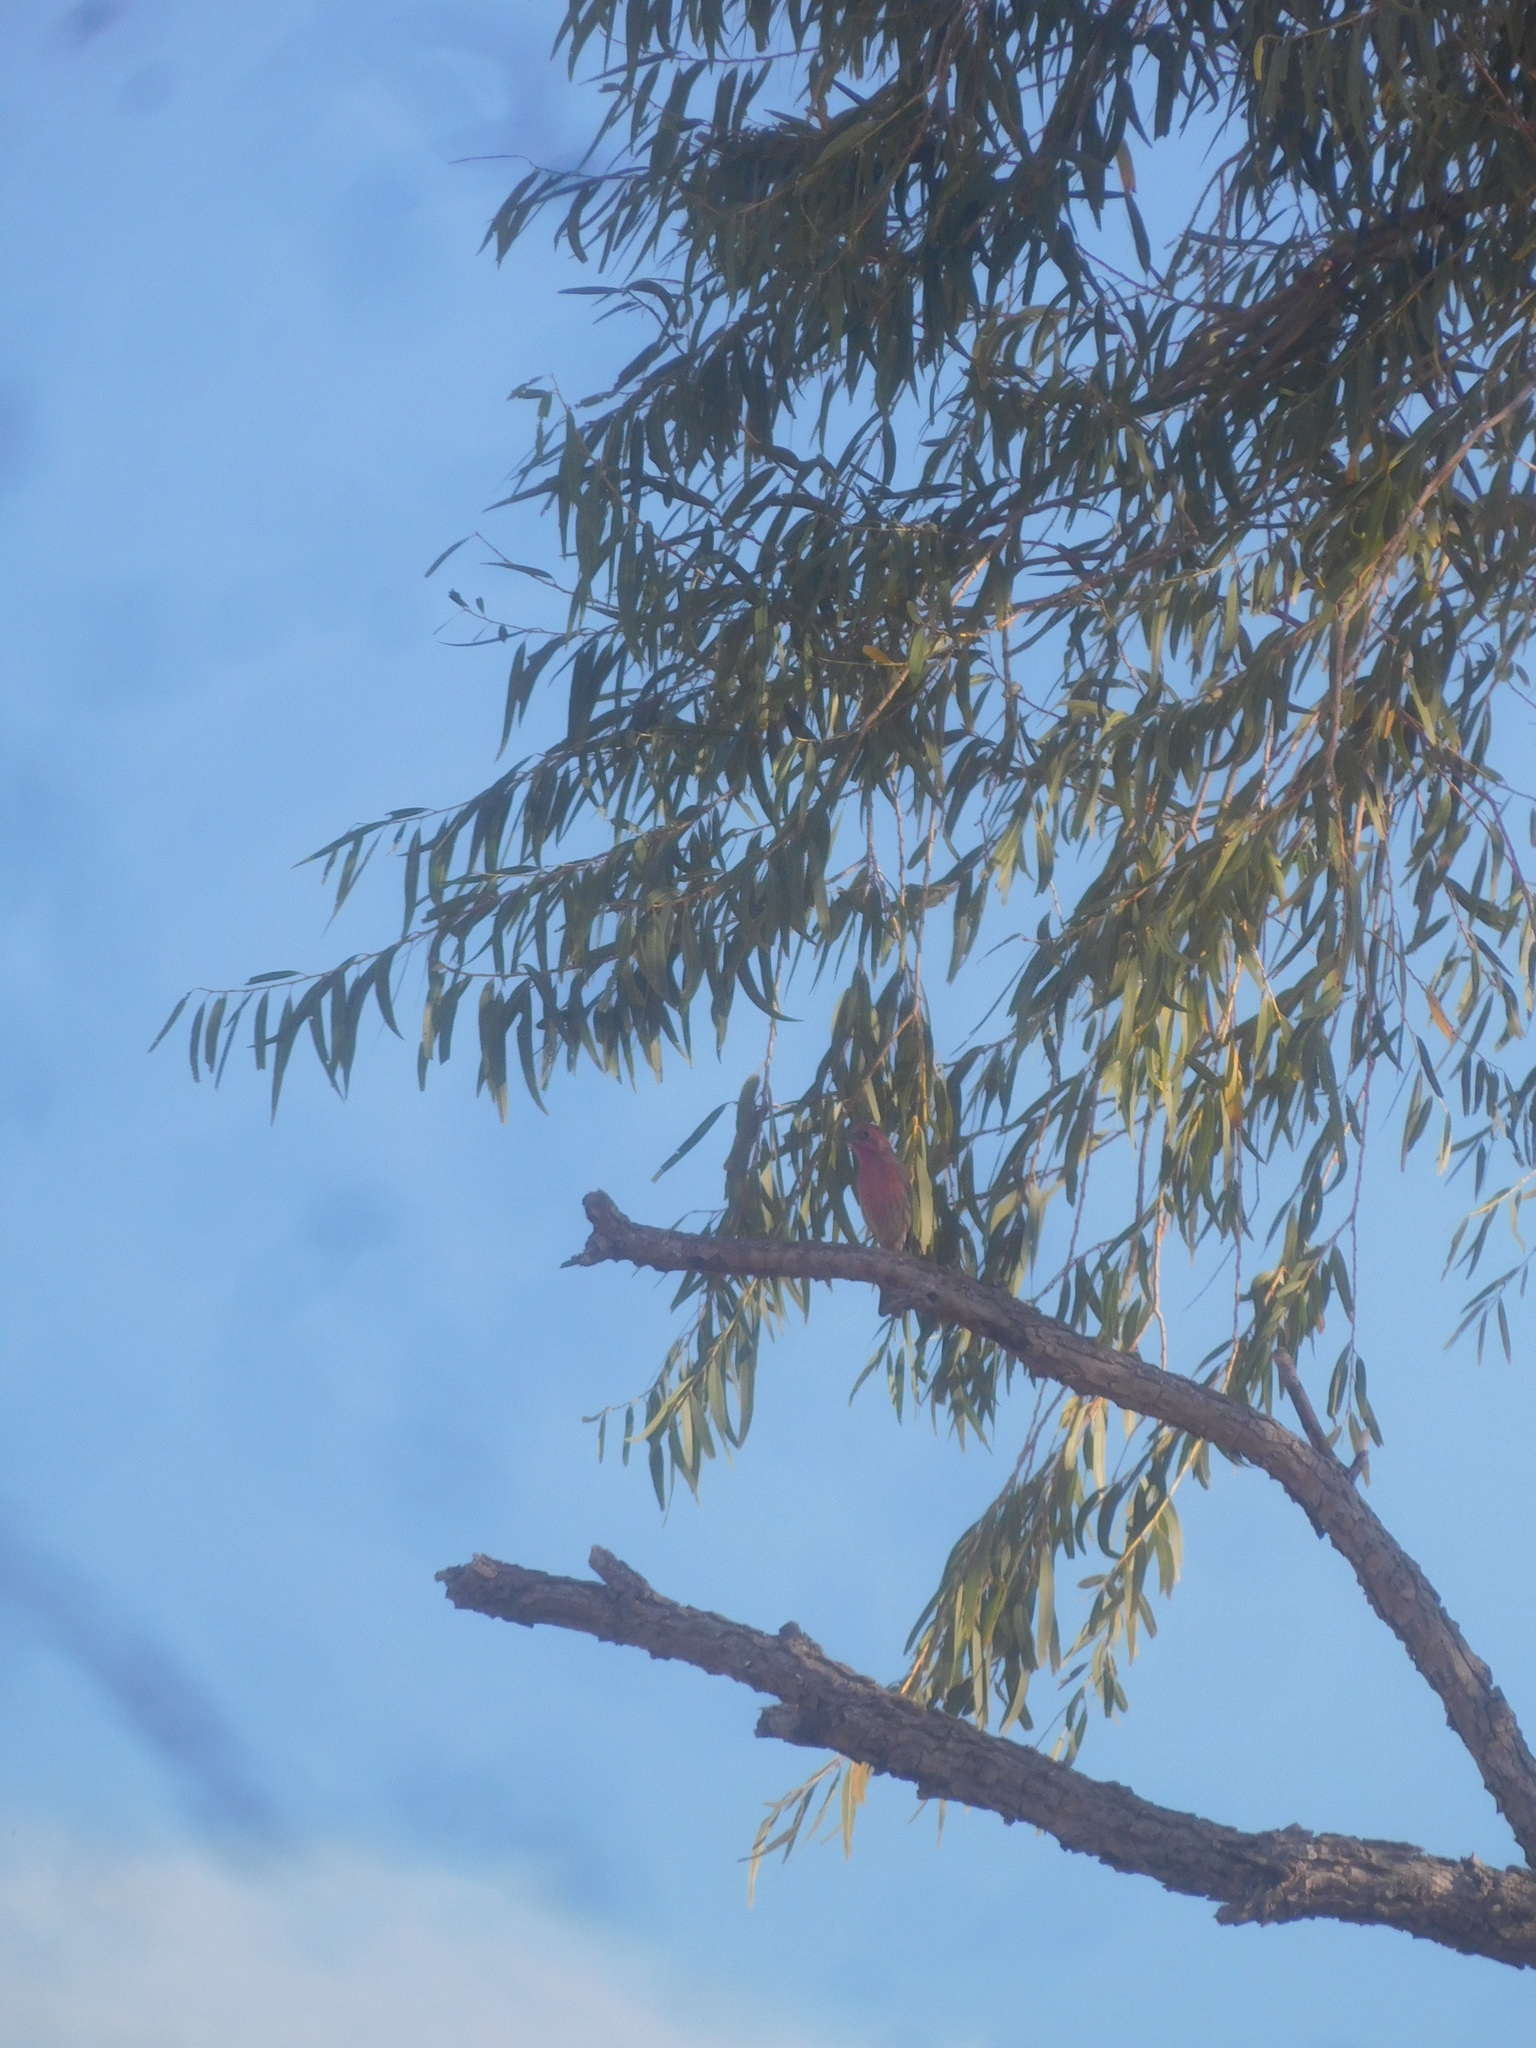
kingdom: Animalia
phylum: Chordata
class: Aves
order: Passeriformes
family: Fringillidae
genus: Haemorhous
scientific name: Haemorhous mexicanus
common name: House finch
